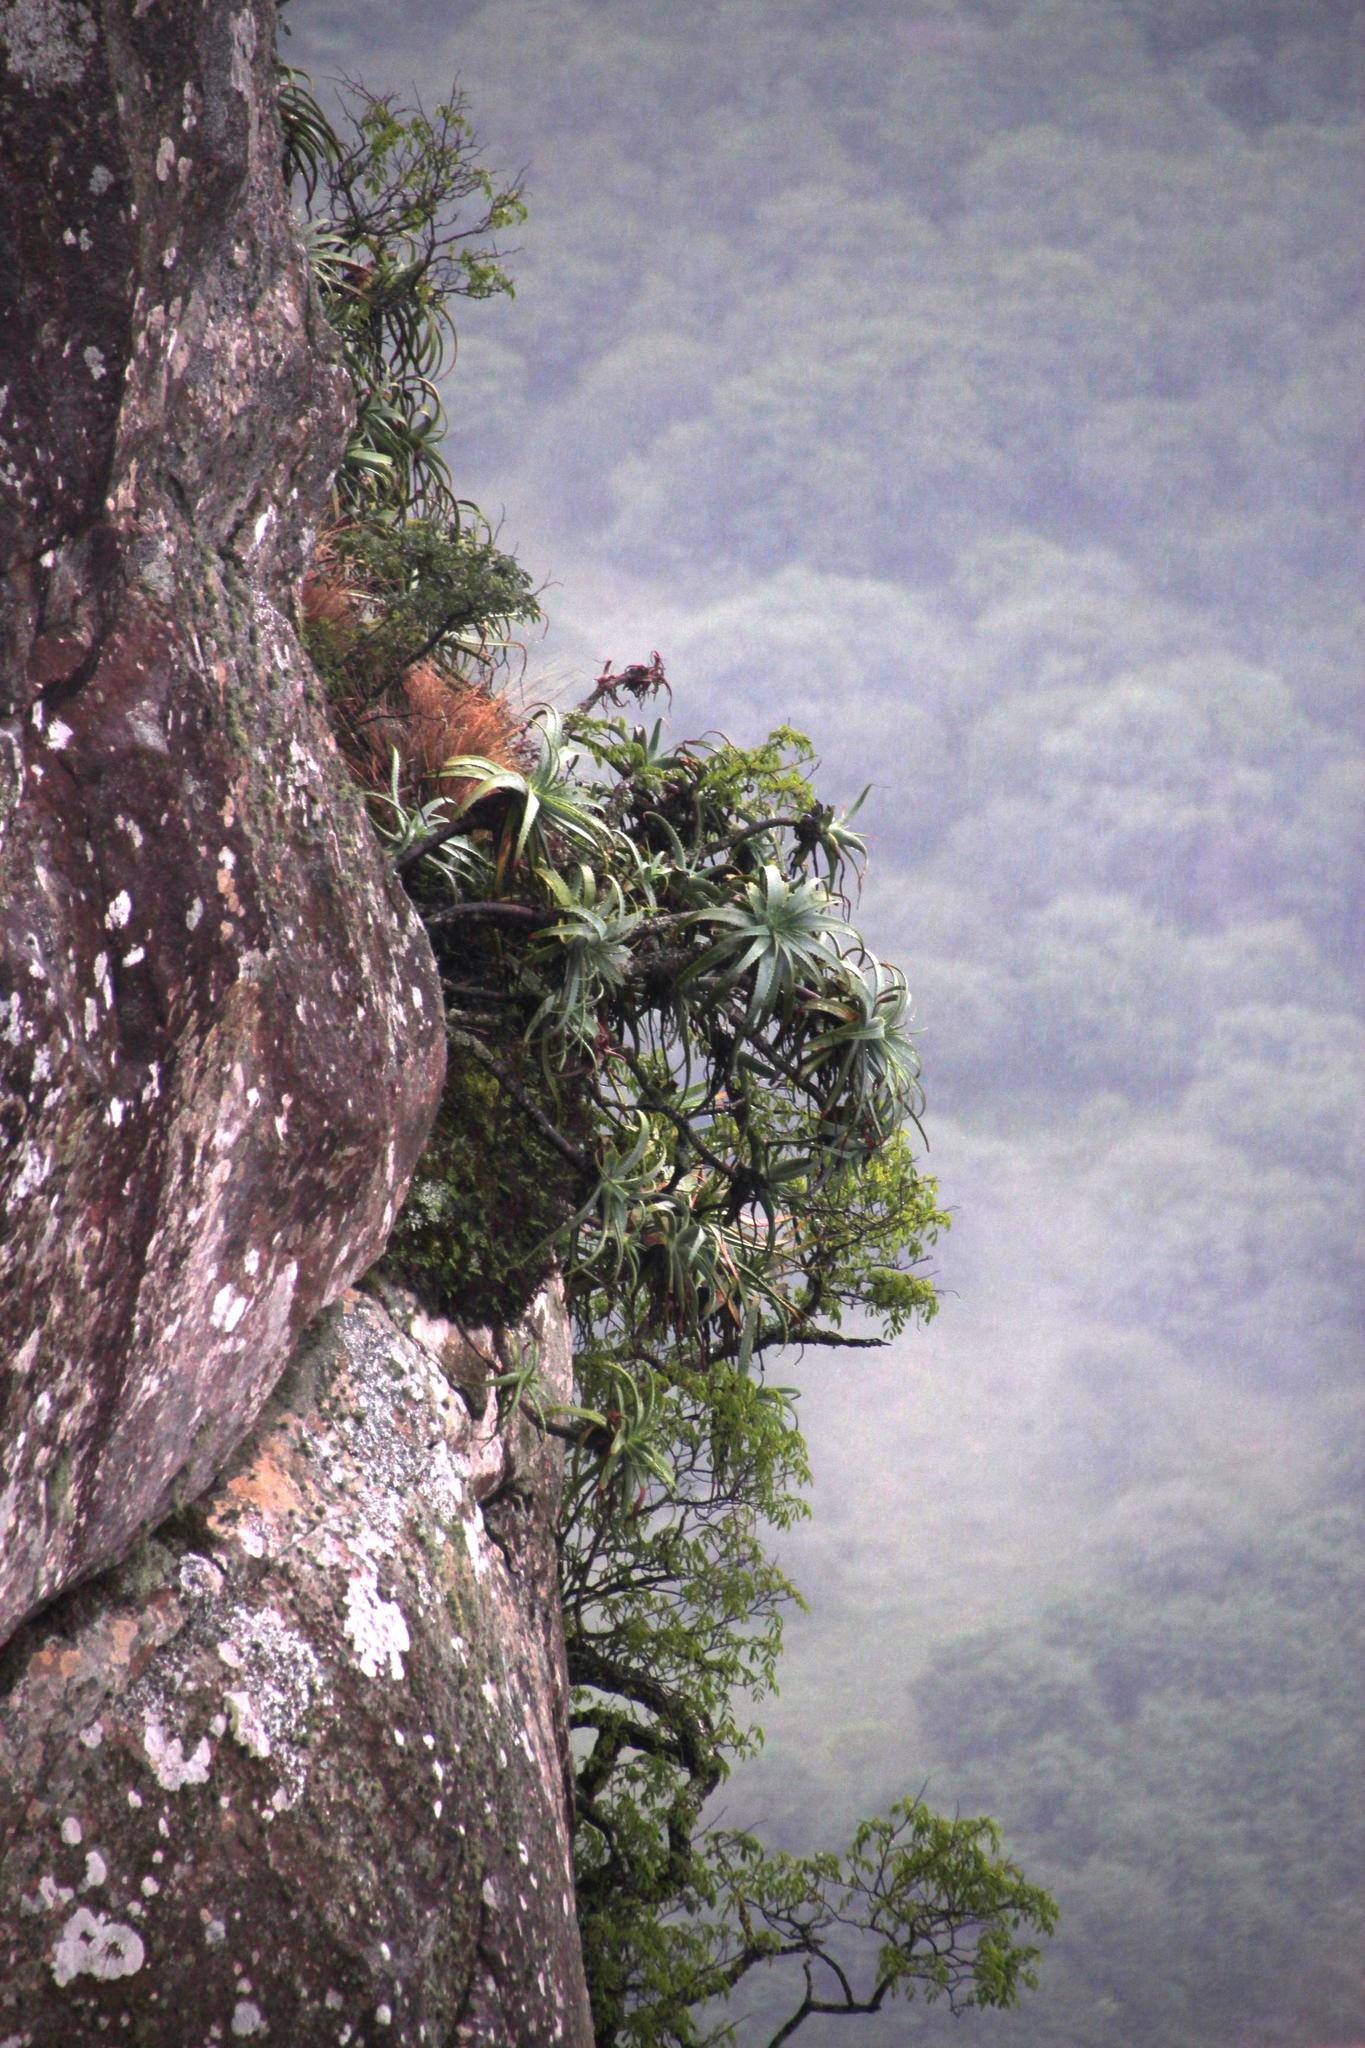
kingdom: Plantae
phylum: Tracheophyta
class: Liliopsida
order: Asparagales
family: Asphodelaceae
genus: Aloe
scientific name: Aloe arborescens
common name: Candelabra aloe
